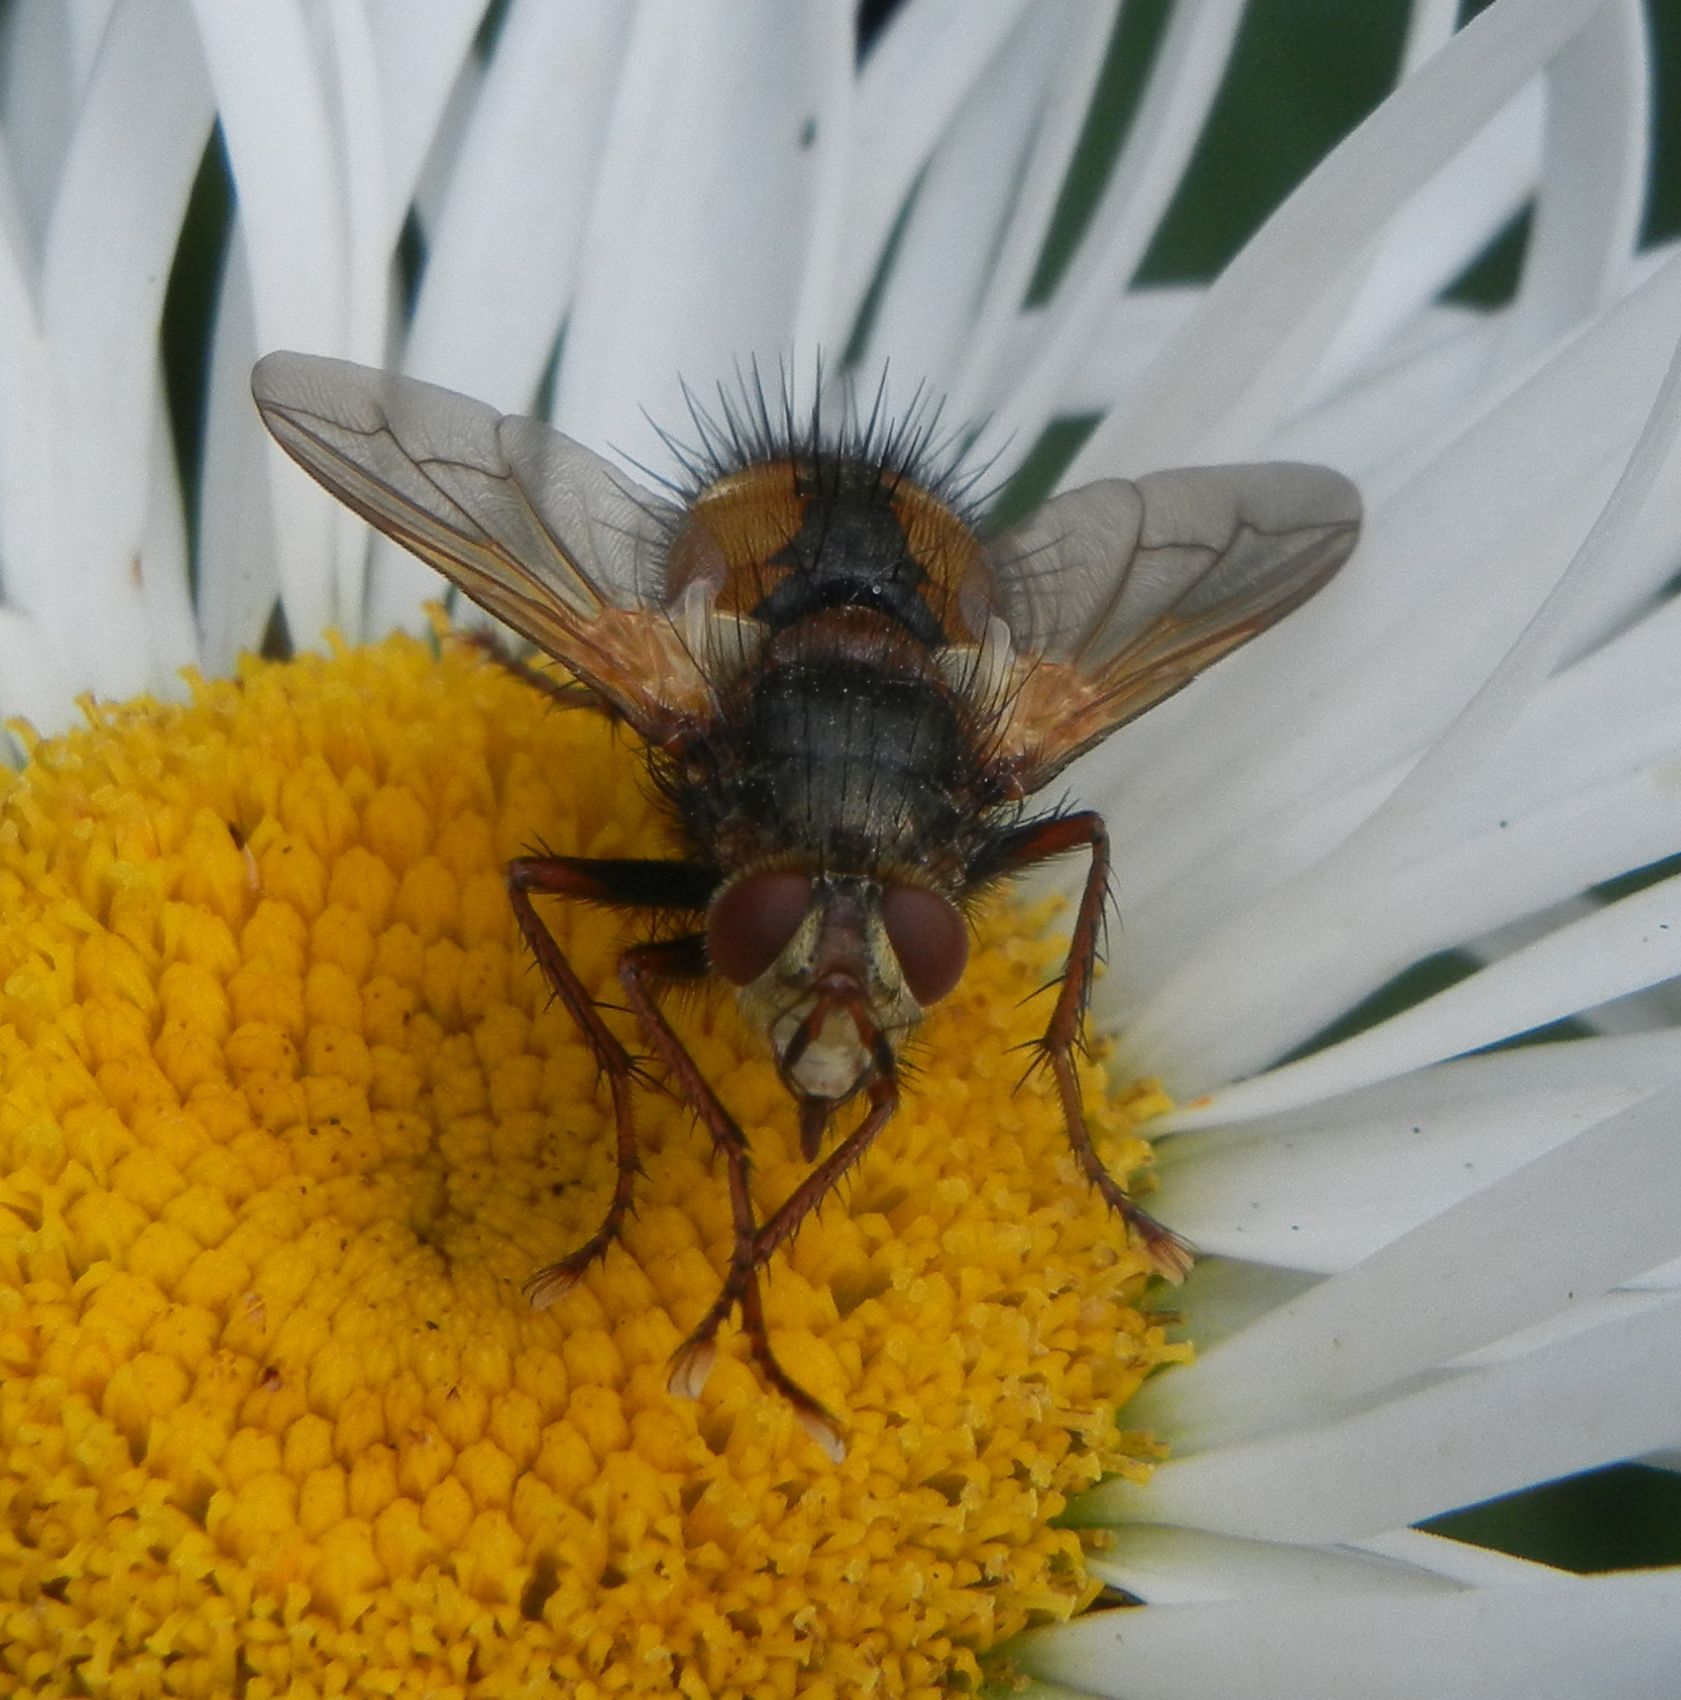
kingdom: Animalia
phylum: Arthropoda
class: Insecta
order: Diptera
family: Tachinidae
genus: Tachina
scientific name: Tachina fera
